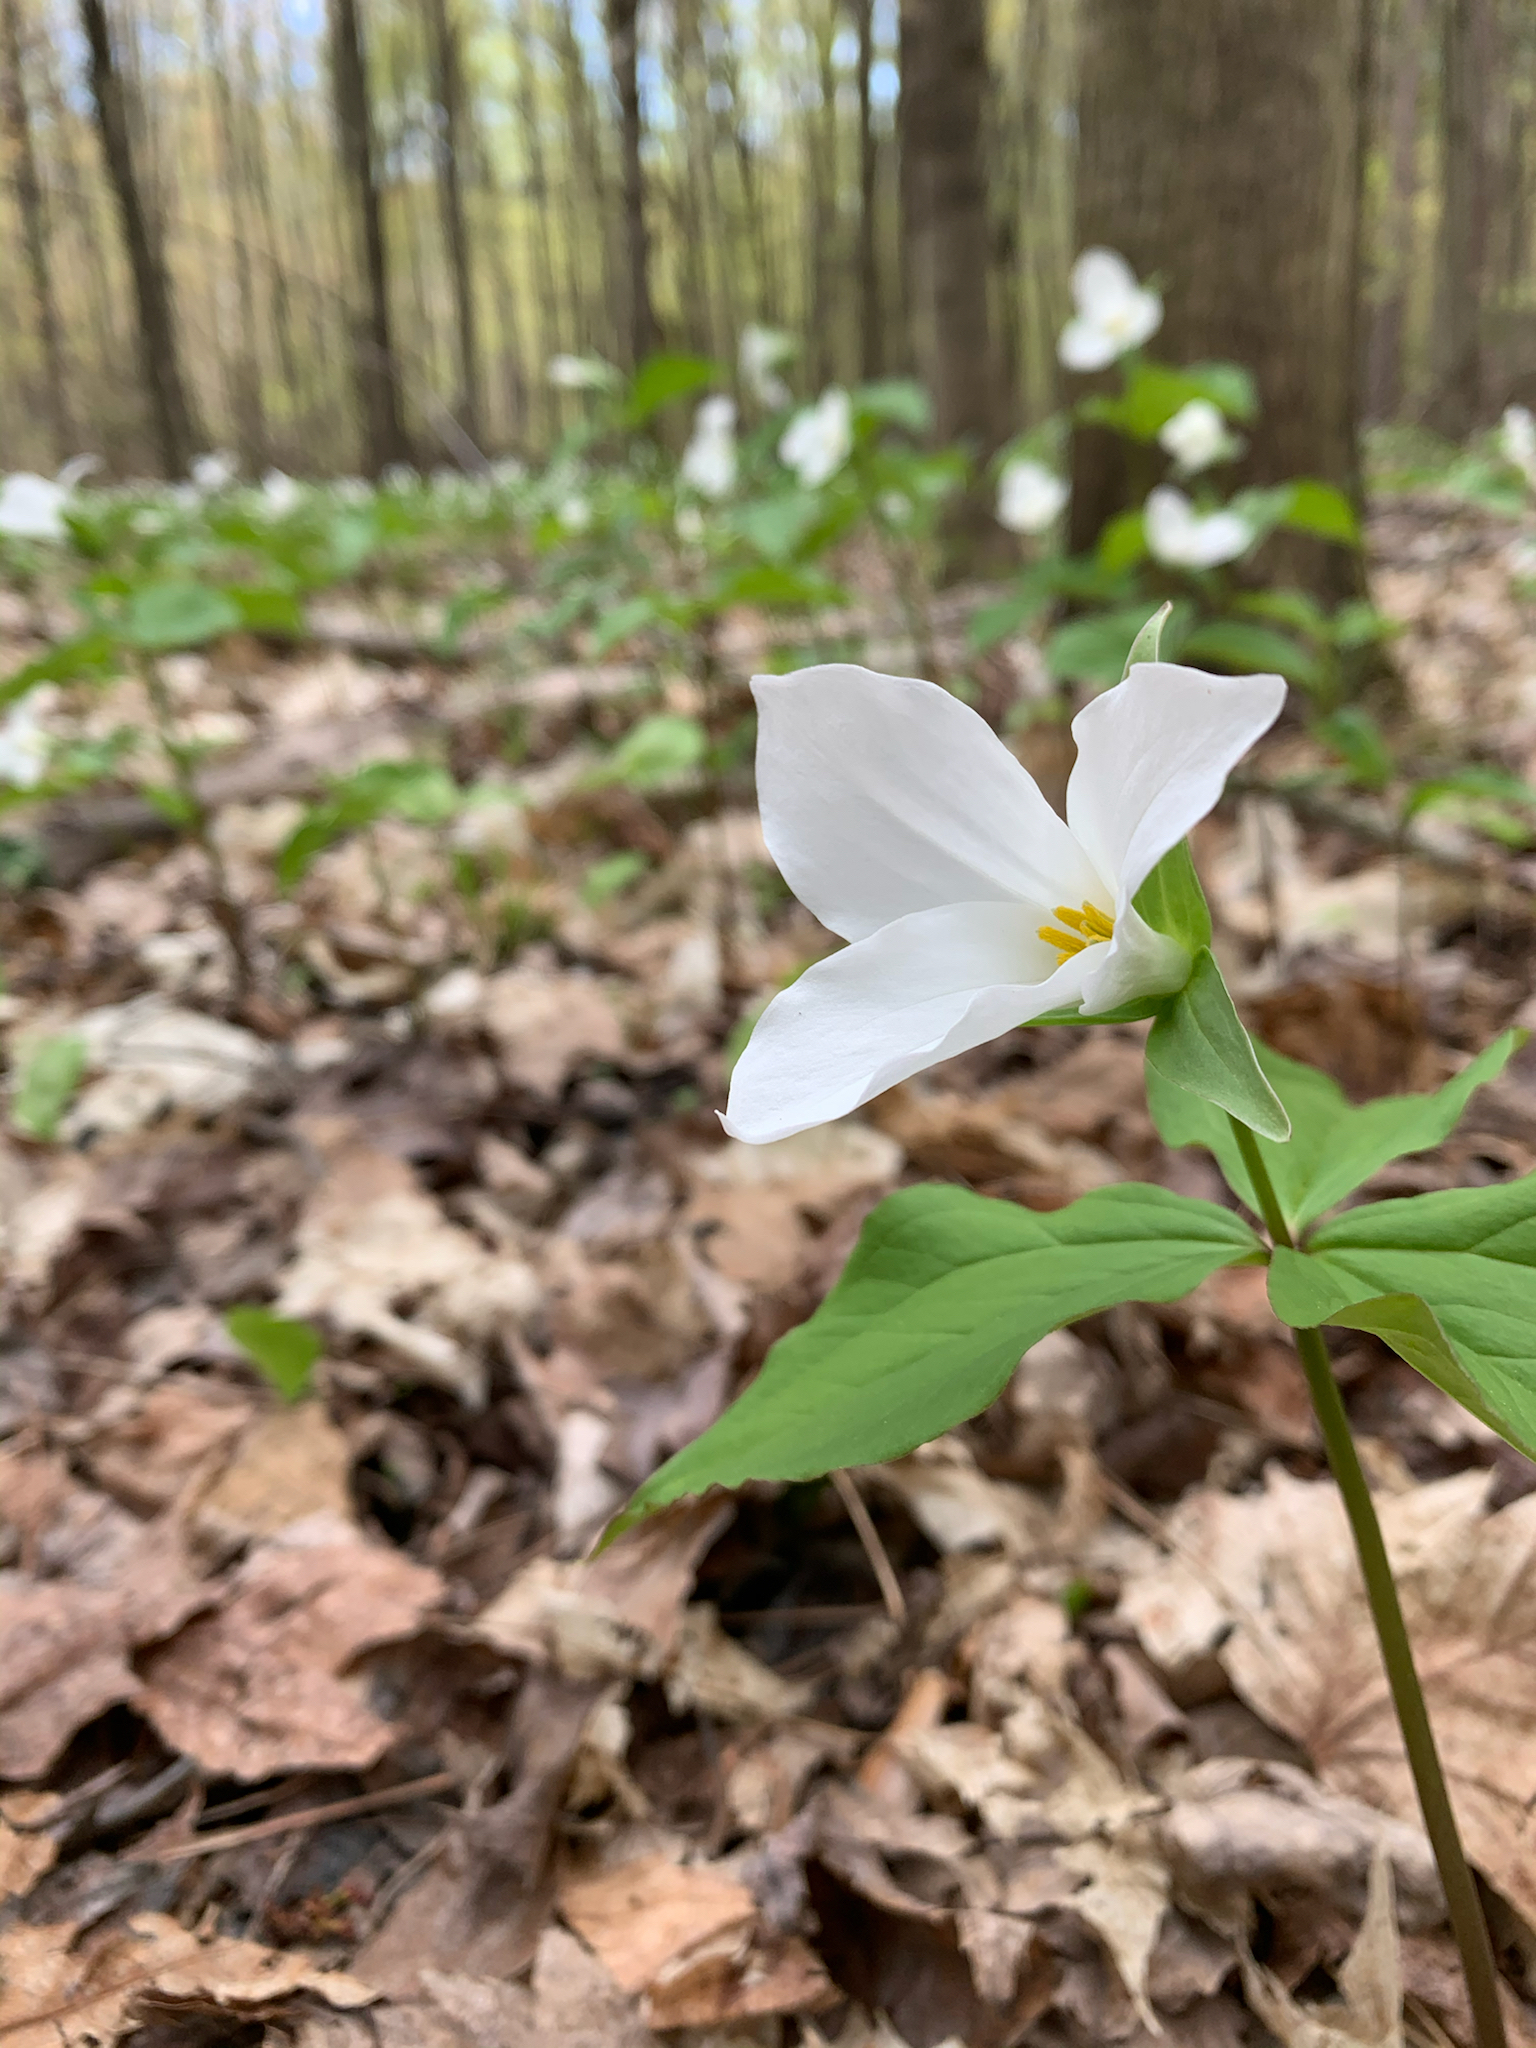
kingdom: Plantae
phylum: Tracheophyta
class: Liliopsida
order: Liliales
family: Melanthiaceae
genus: Trillium
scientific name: Trillium grandiflorum
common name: Great white trillium
